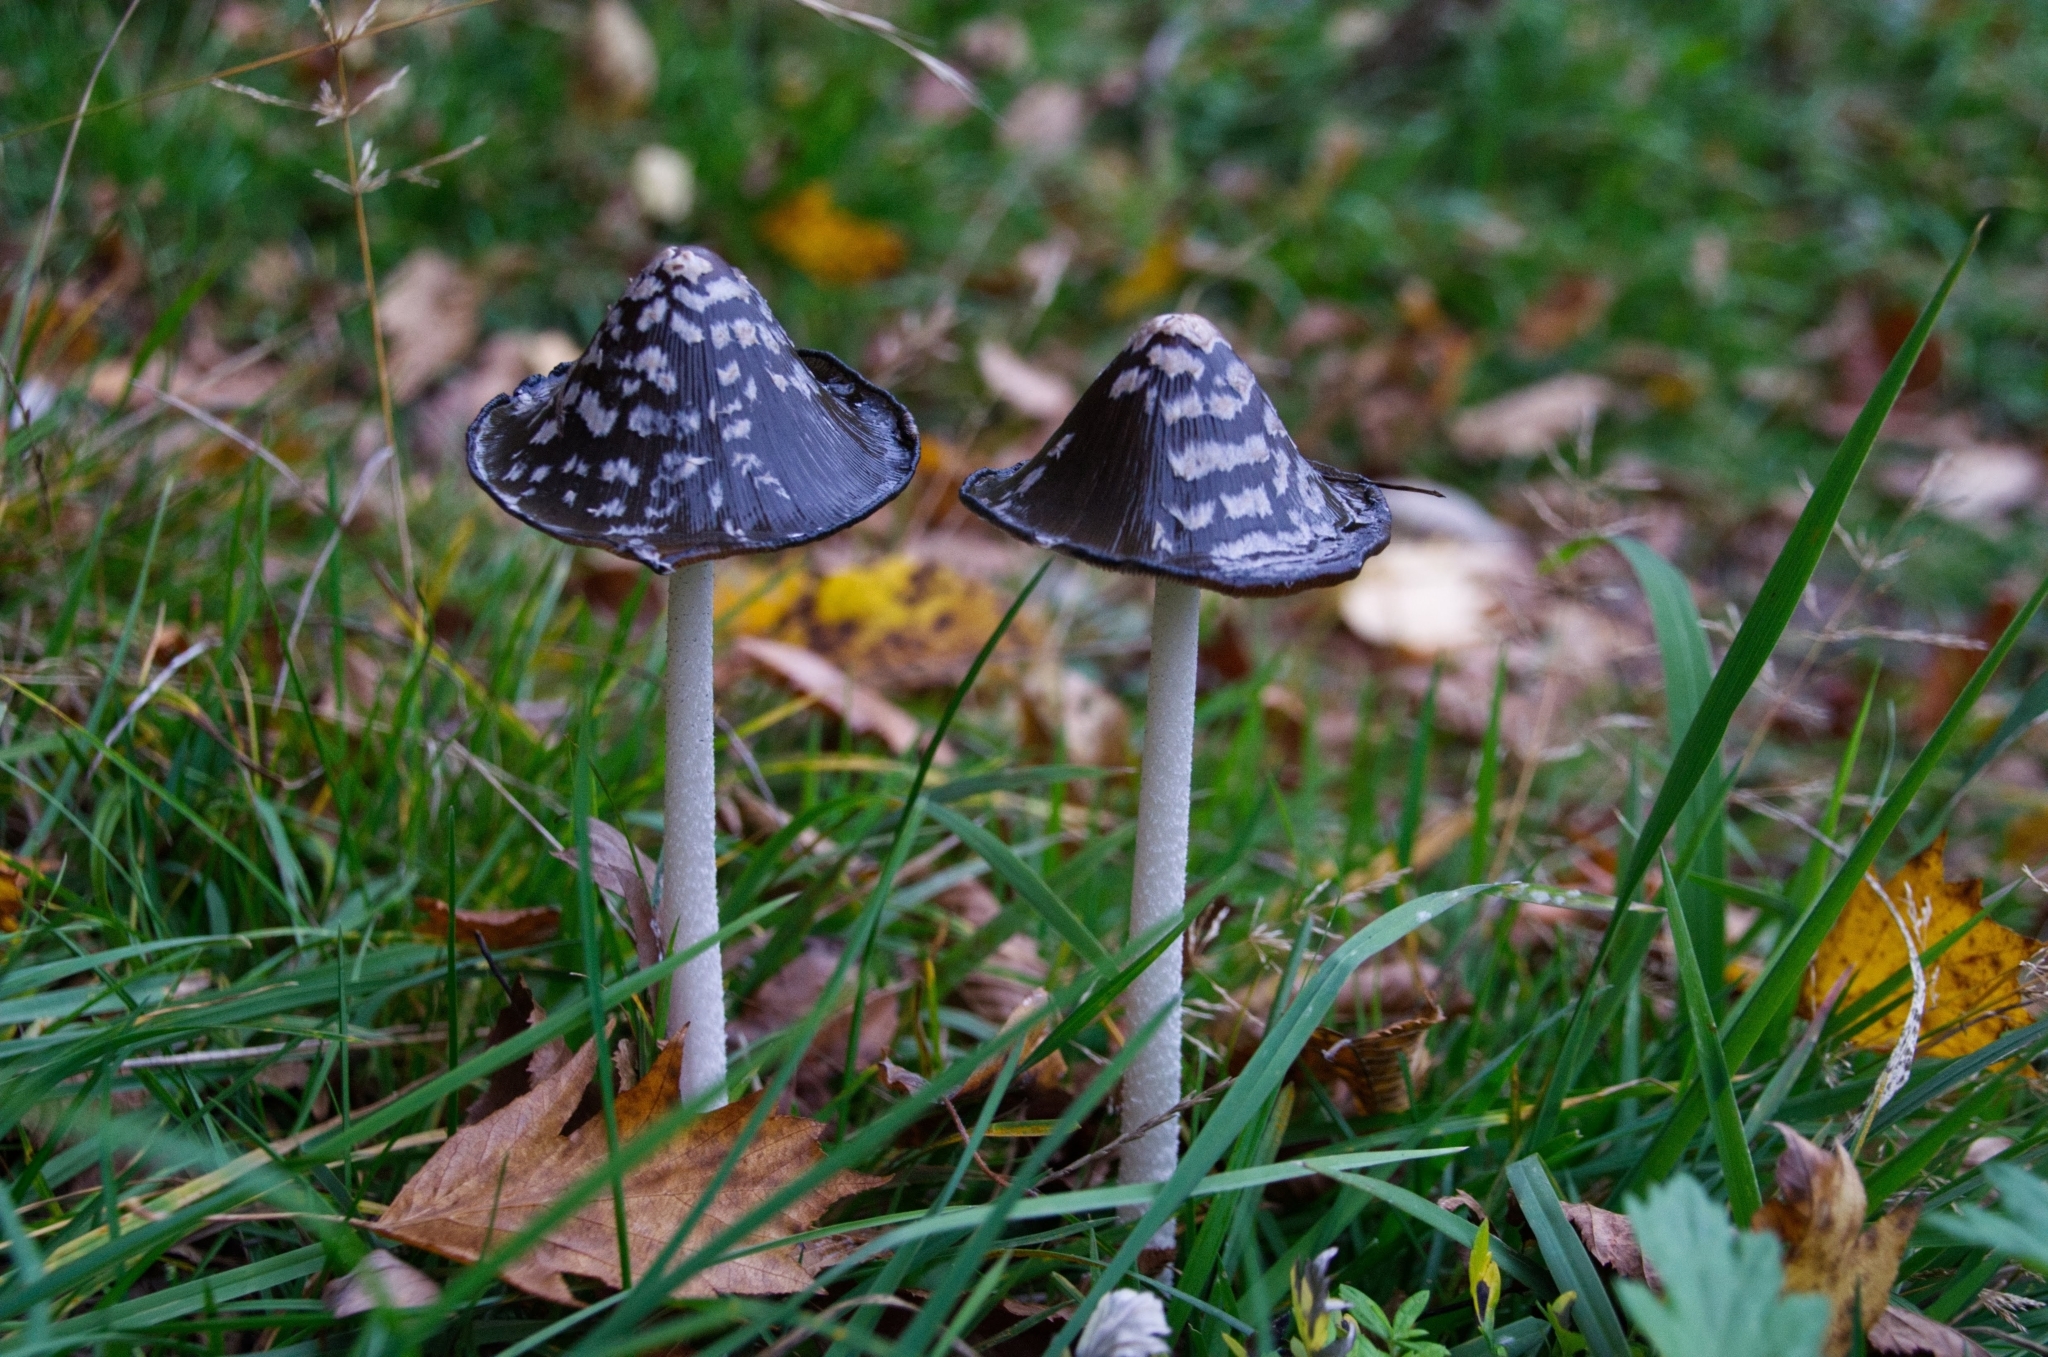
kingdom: Fungi
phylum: Basidiomycota
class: Agaricomycetes
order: Agaricales
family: Psathyrellaceae
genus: Coprinopsis
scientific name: Coprinopsis picacea
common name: Magpie inkcap
